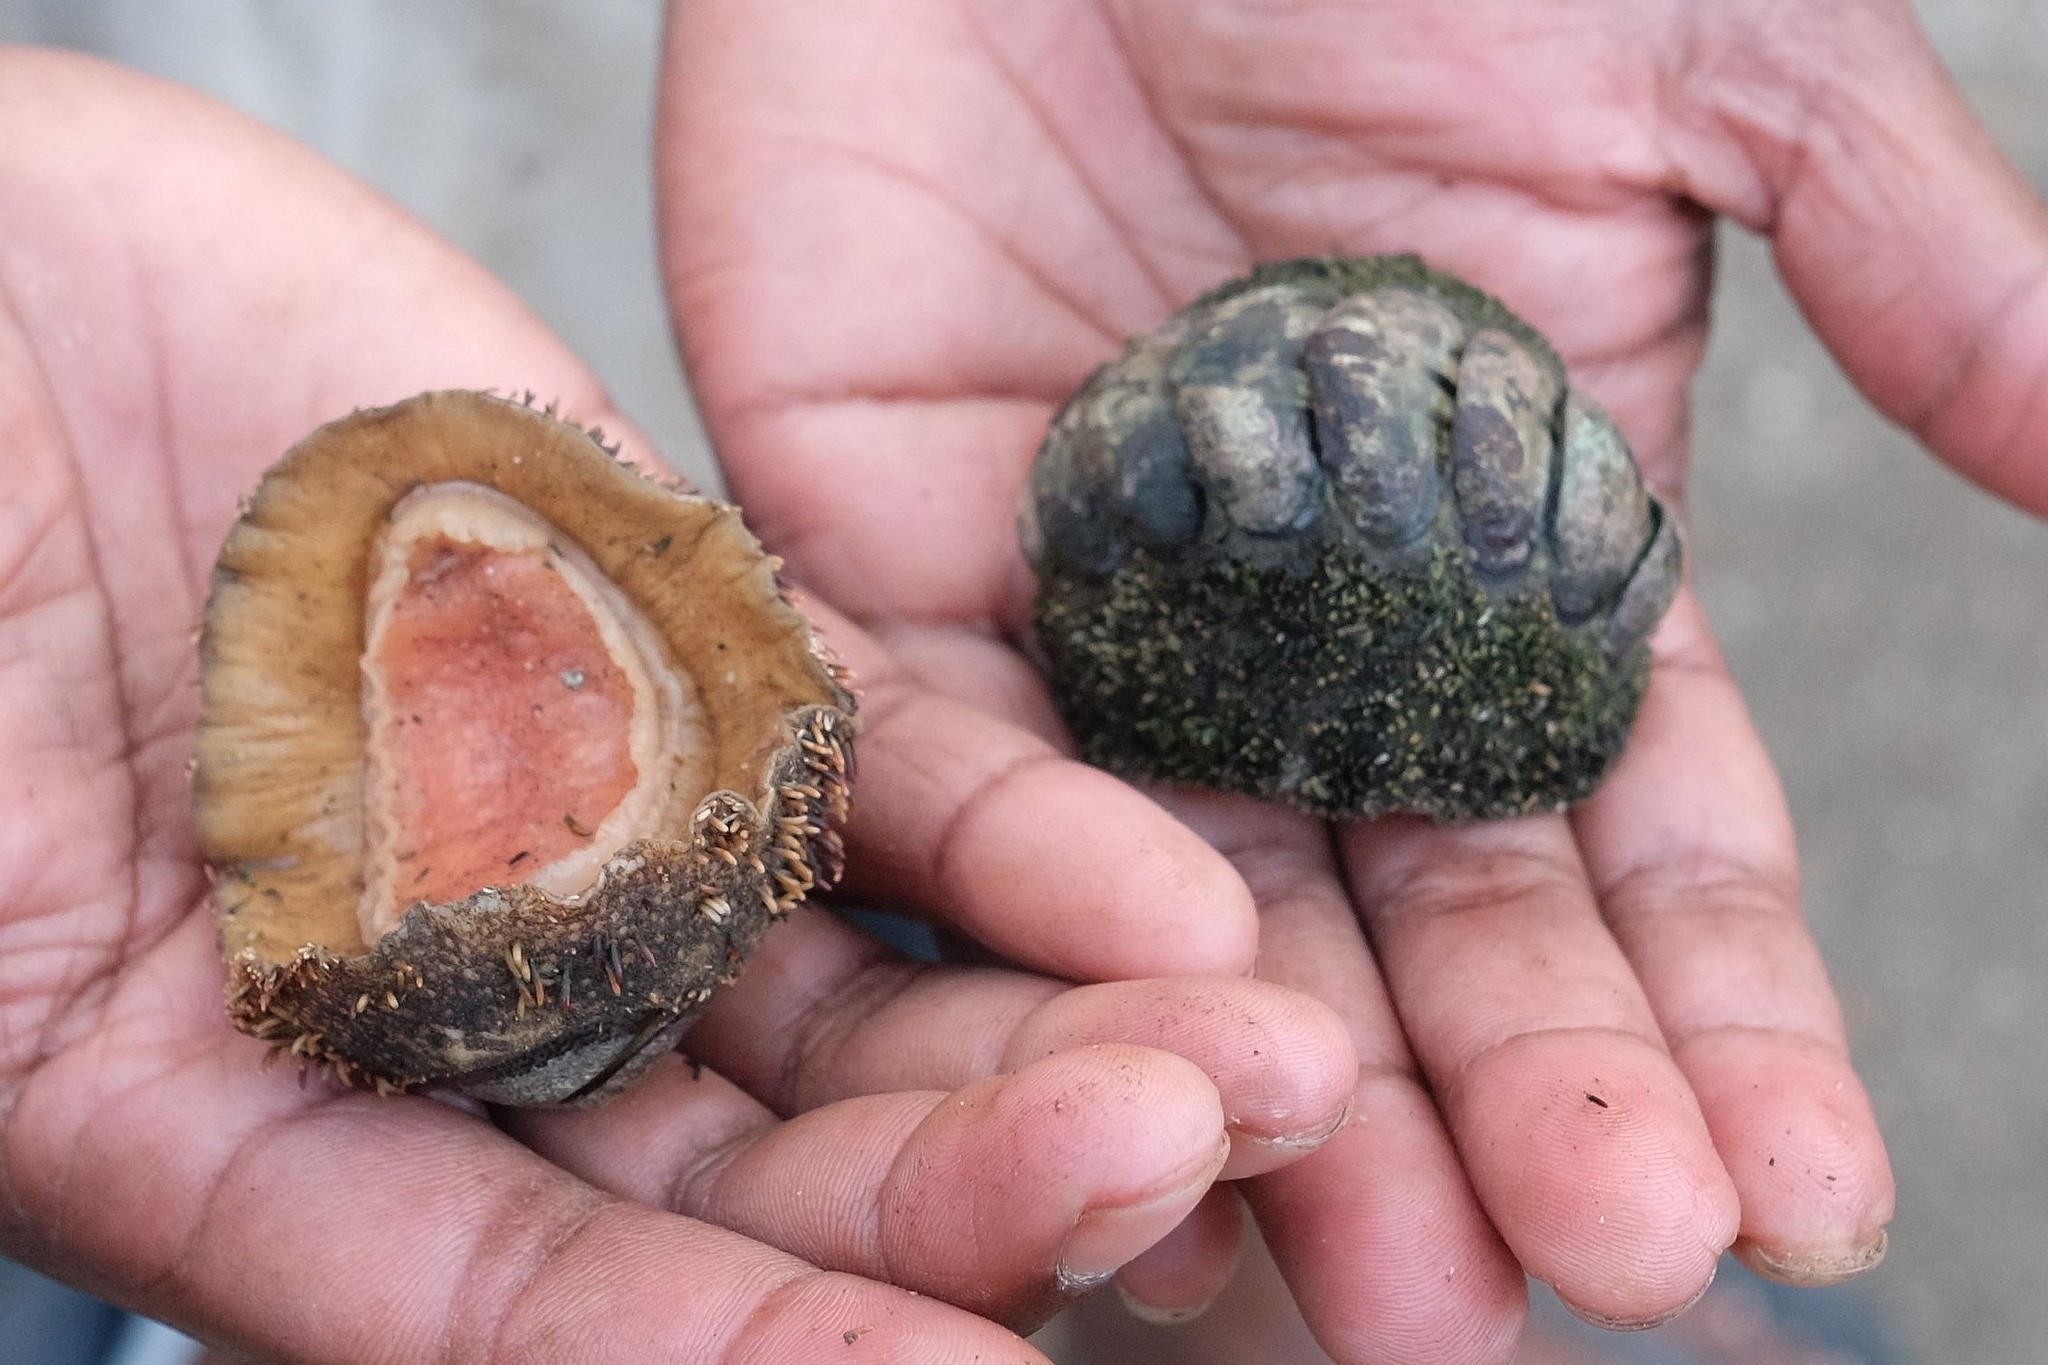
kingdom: Animalia
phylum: Mollusca
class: Polyplacophora
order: Chitonida
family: Chitonidae
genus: Acanthopleura
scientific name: Acanthopleura gemmata
